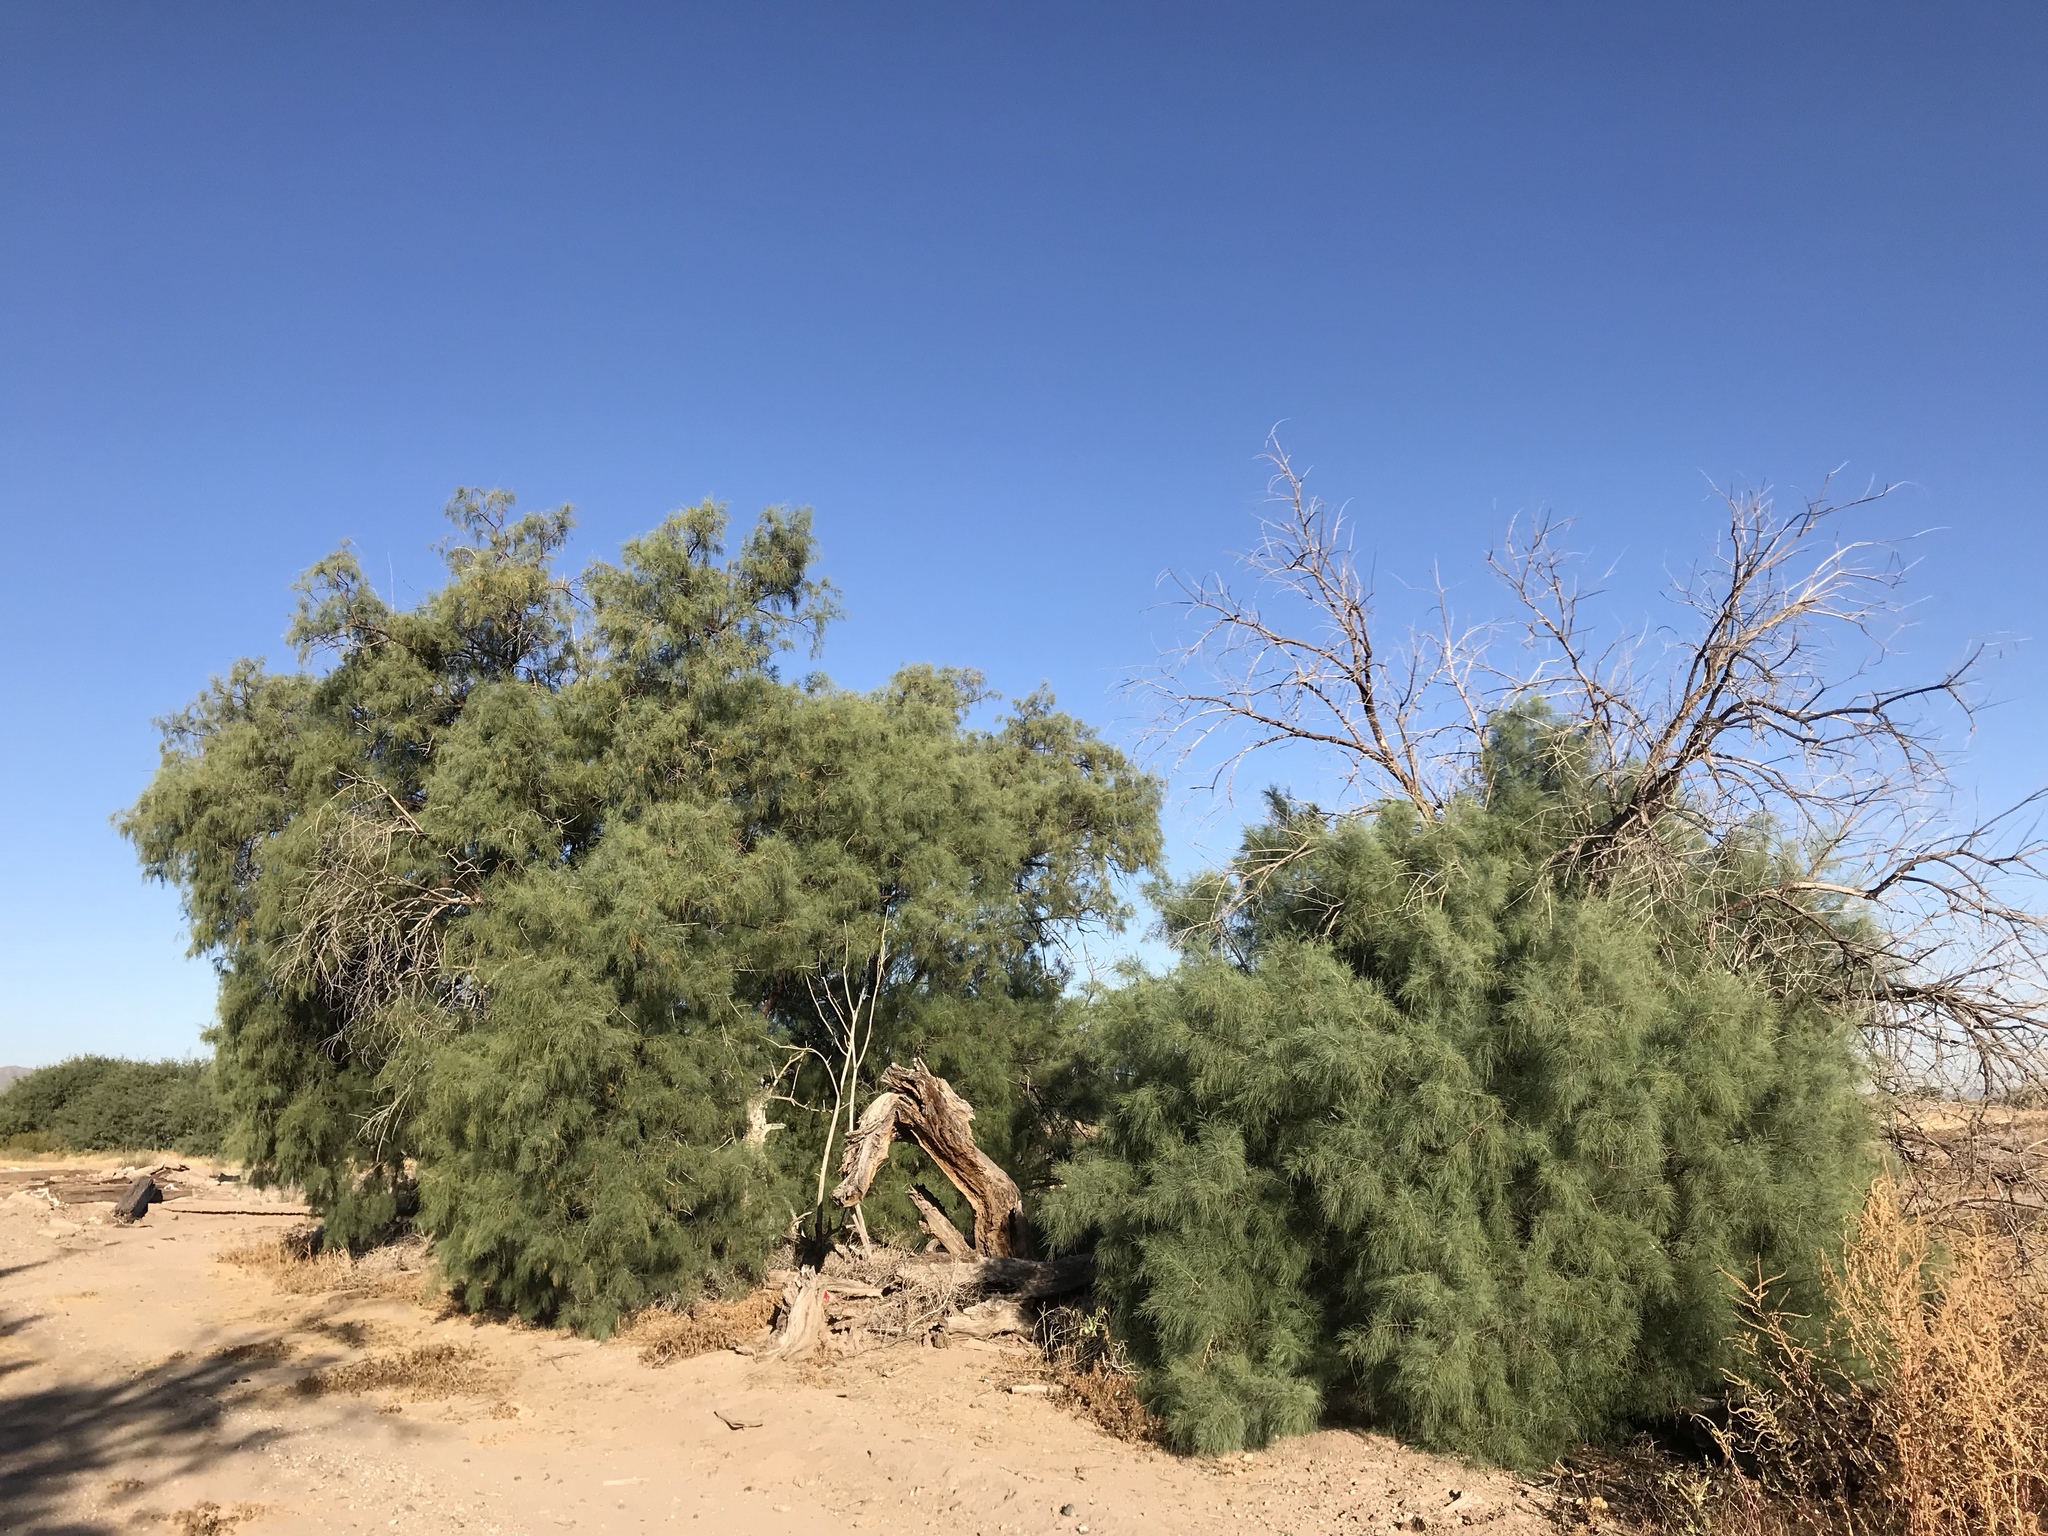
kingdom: Plantae
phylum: Tracheophyta
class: Magnoliopsida
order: Caryophyllales
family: Tamaricaceae
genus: Tamarix
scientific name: Tamarix aphylla
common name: Athel tamarisk
